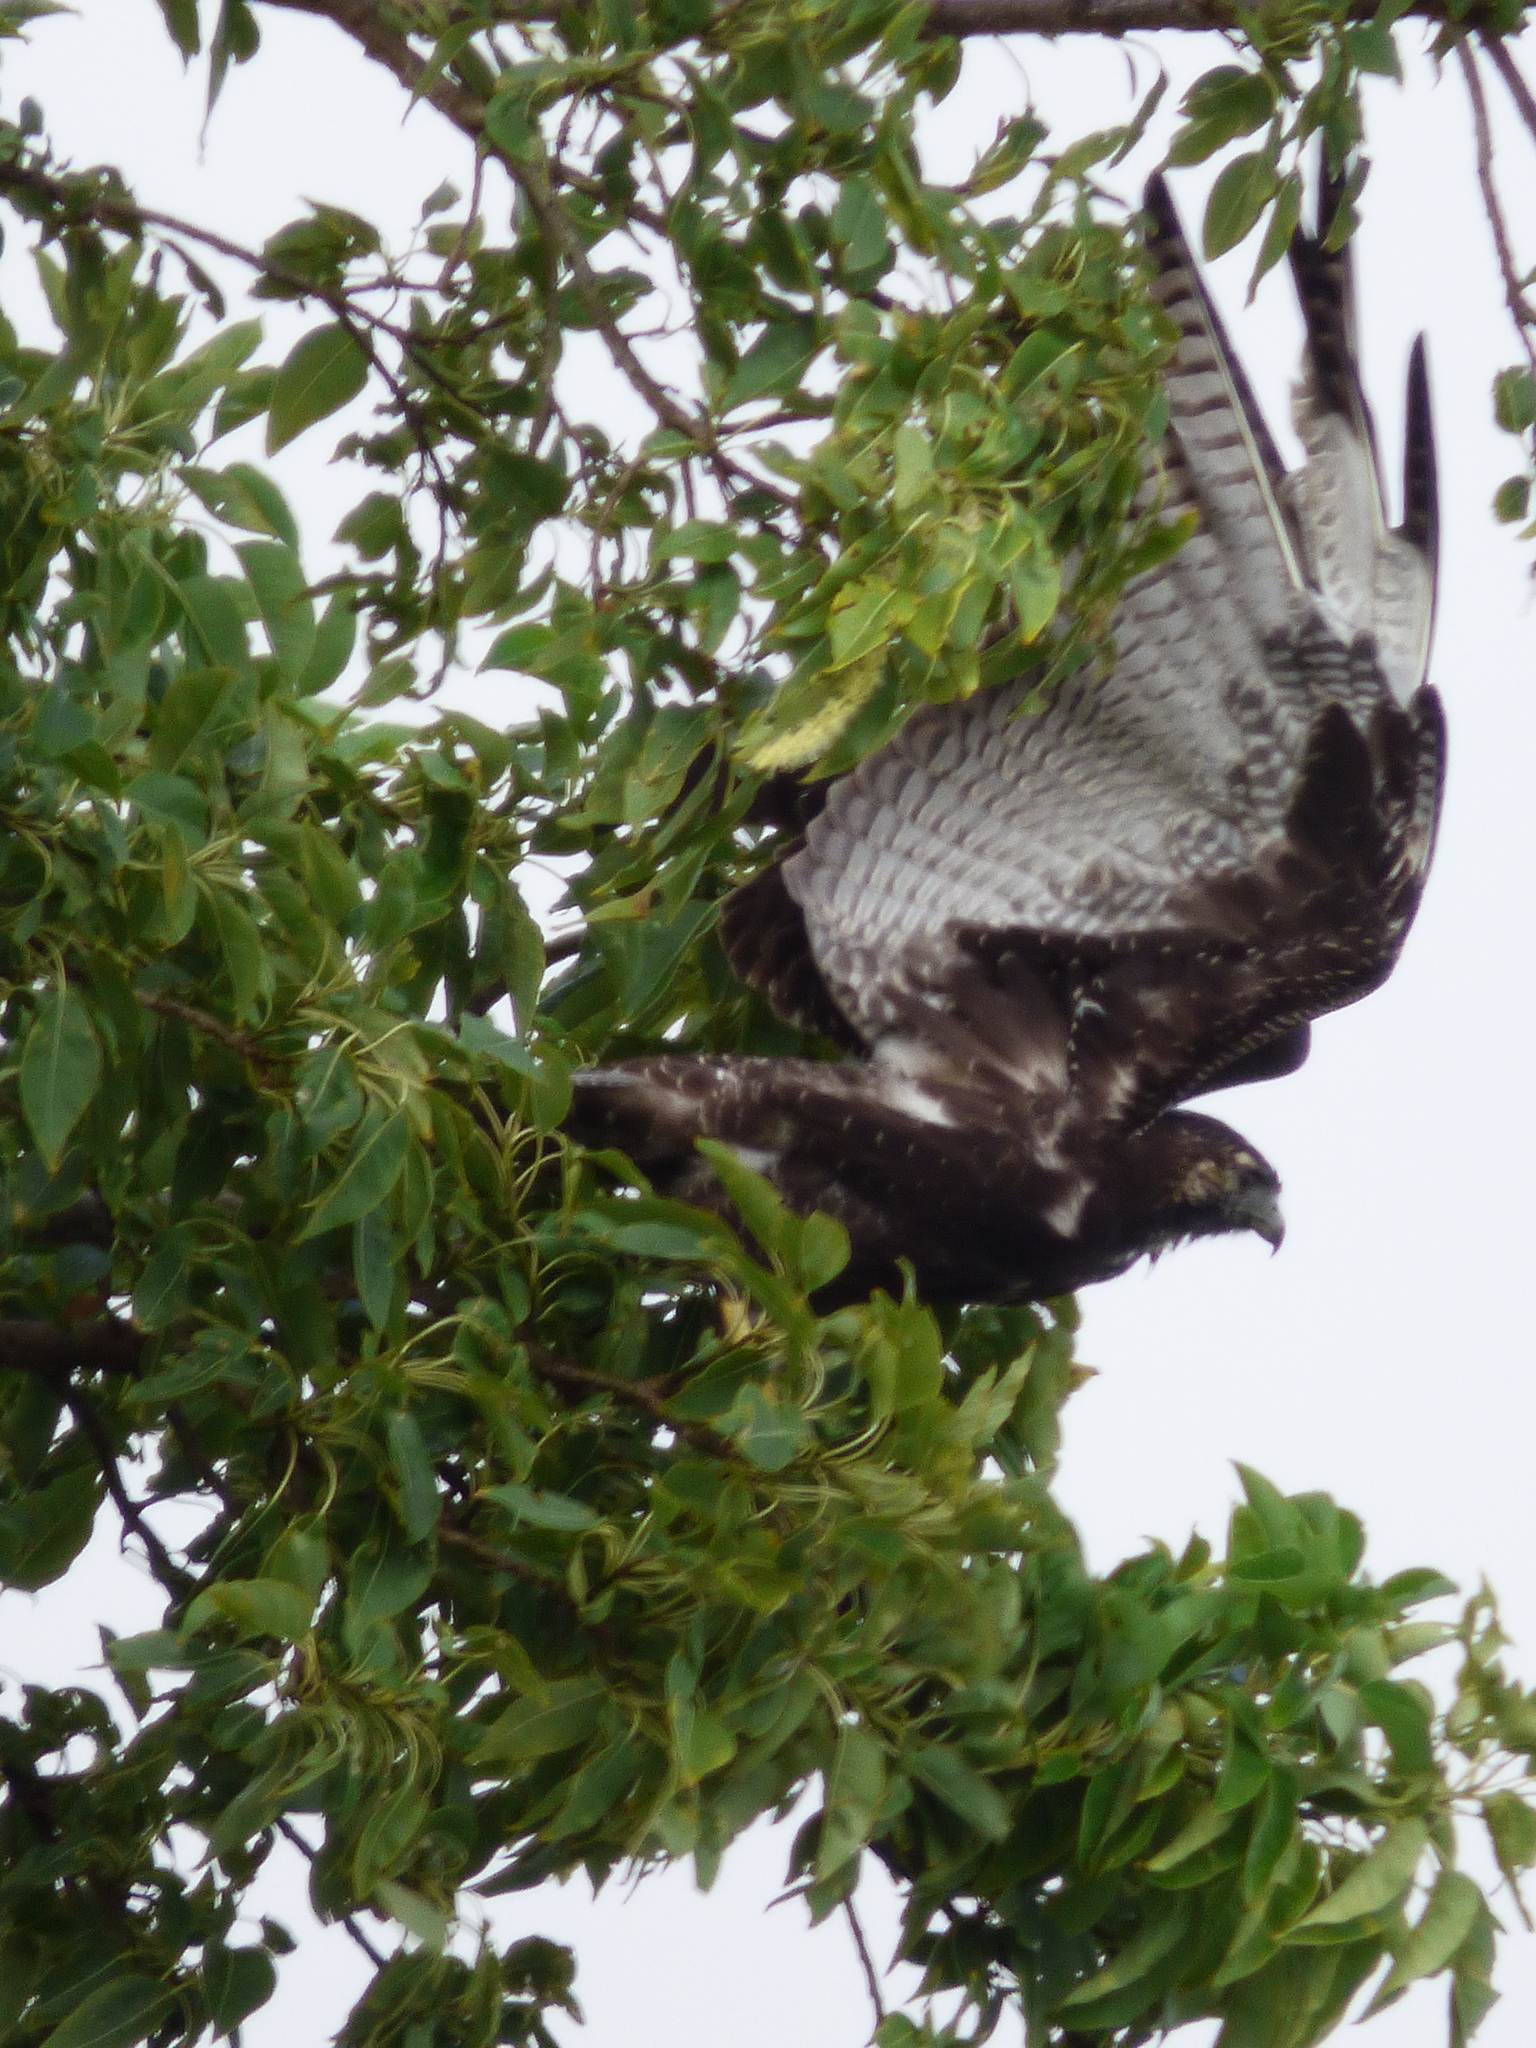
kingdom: Animalia
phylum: Chordata
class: Aves
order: Accipitriformes
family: Accipitridae
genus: Buteo
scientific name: Buteo albicaudatus
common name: White-tailed hawk
